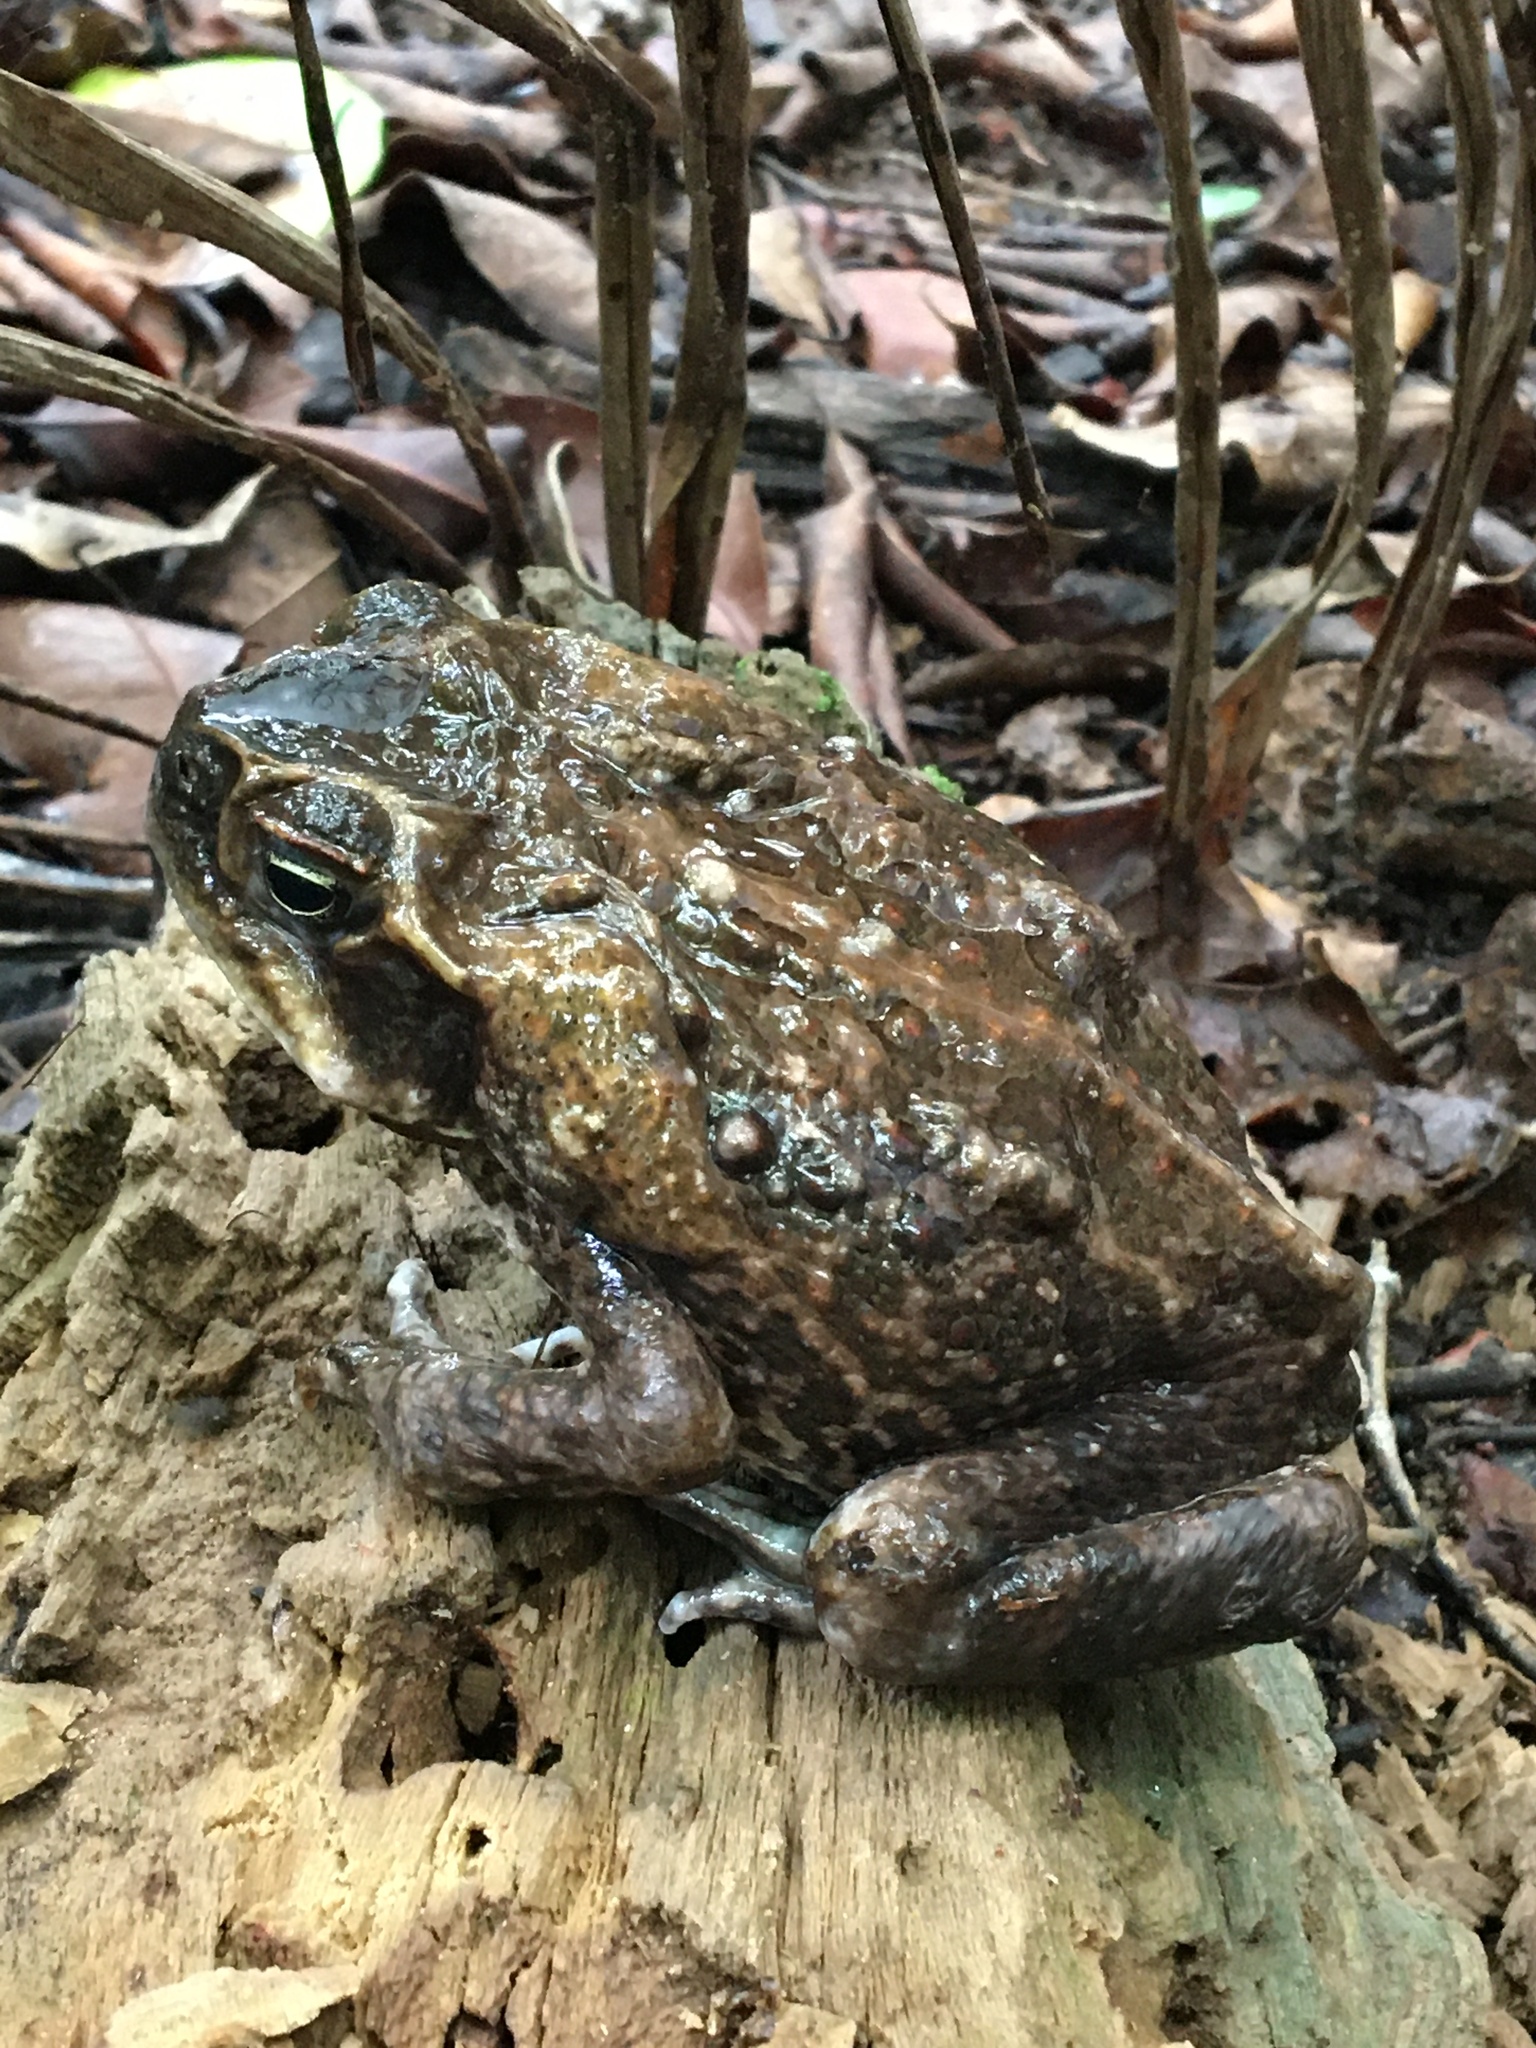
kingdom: Animalia
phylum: Chordata
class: Amphibia
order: Anura
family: Bufonidae
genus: Rhinella
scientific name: Rhinella marina
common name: Cane toad
